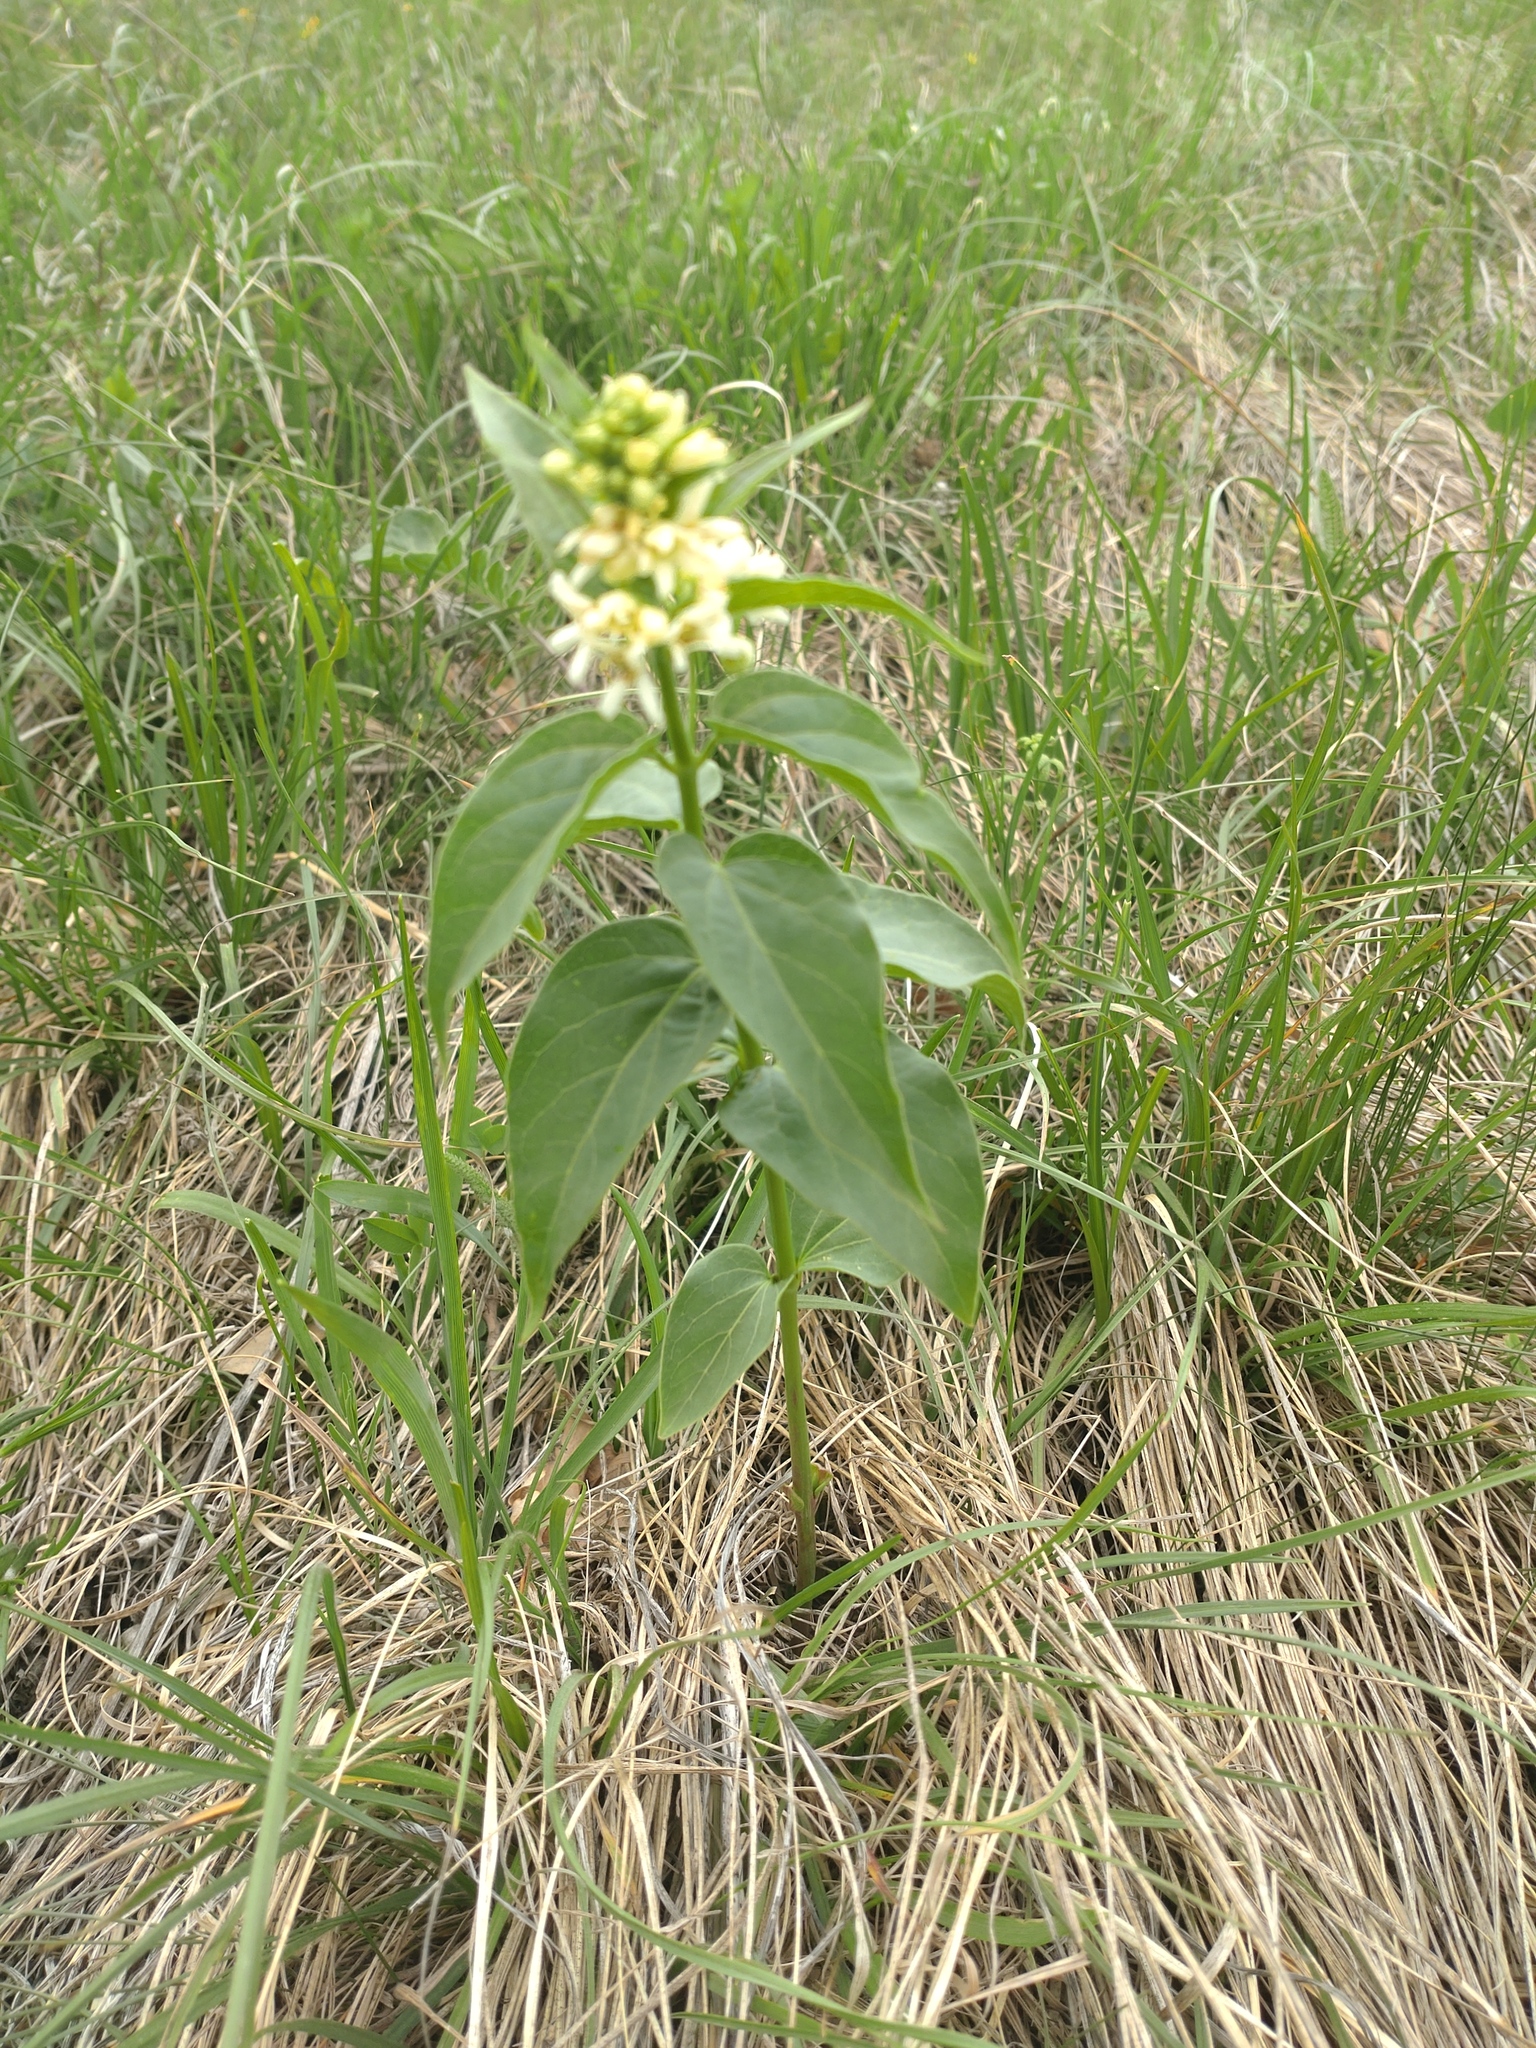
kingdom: Plantae
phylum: Tracheophyta
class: Magnoliopsida
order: Gentianales
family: Apocynaceae
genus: Vincetoxicum
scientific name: Vincetoxicum hirundinaria
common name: White swallowwort
